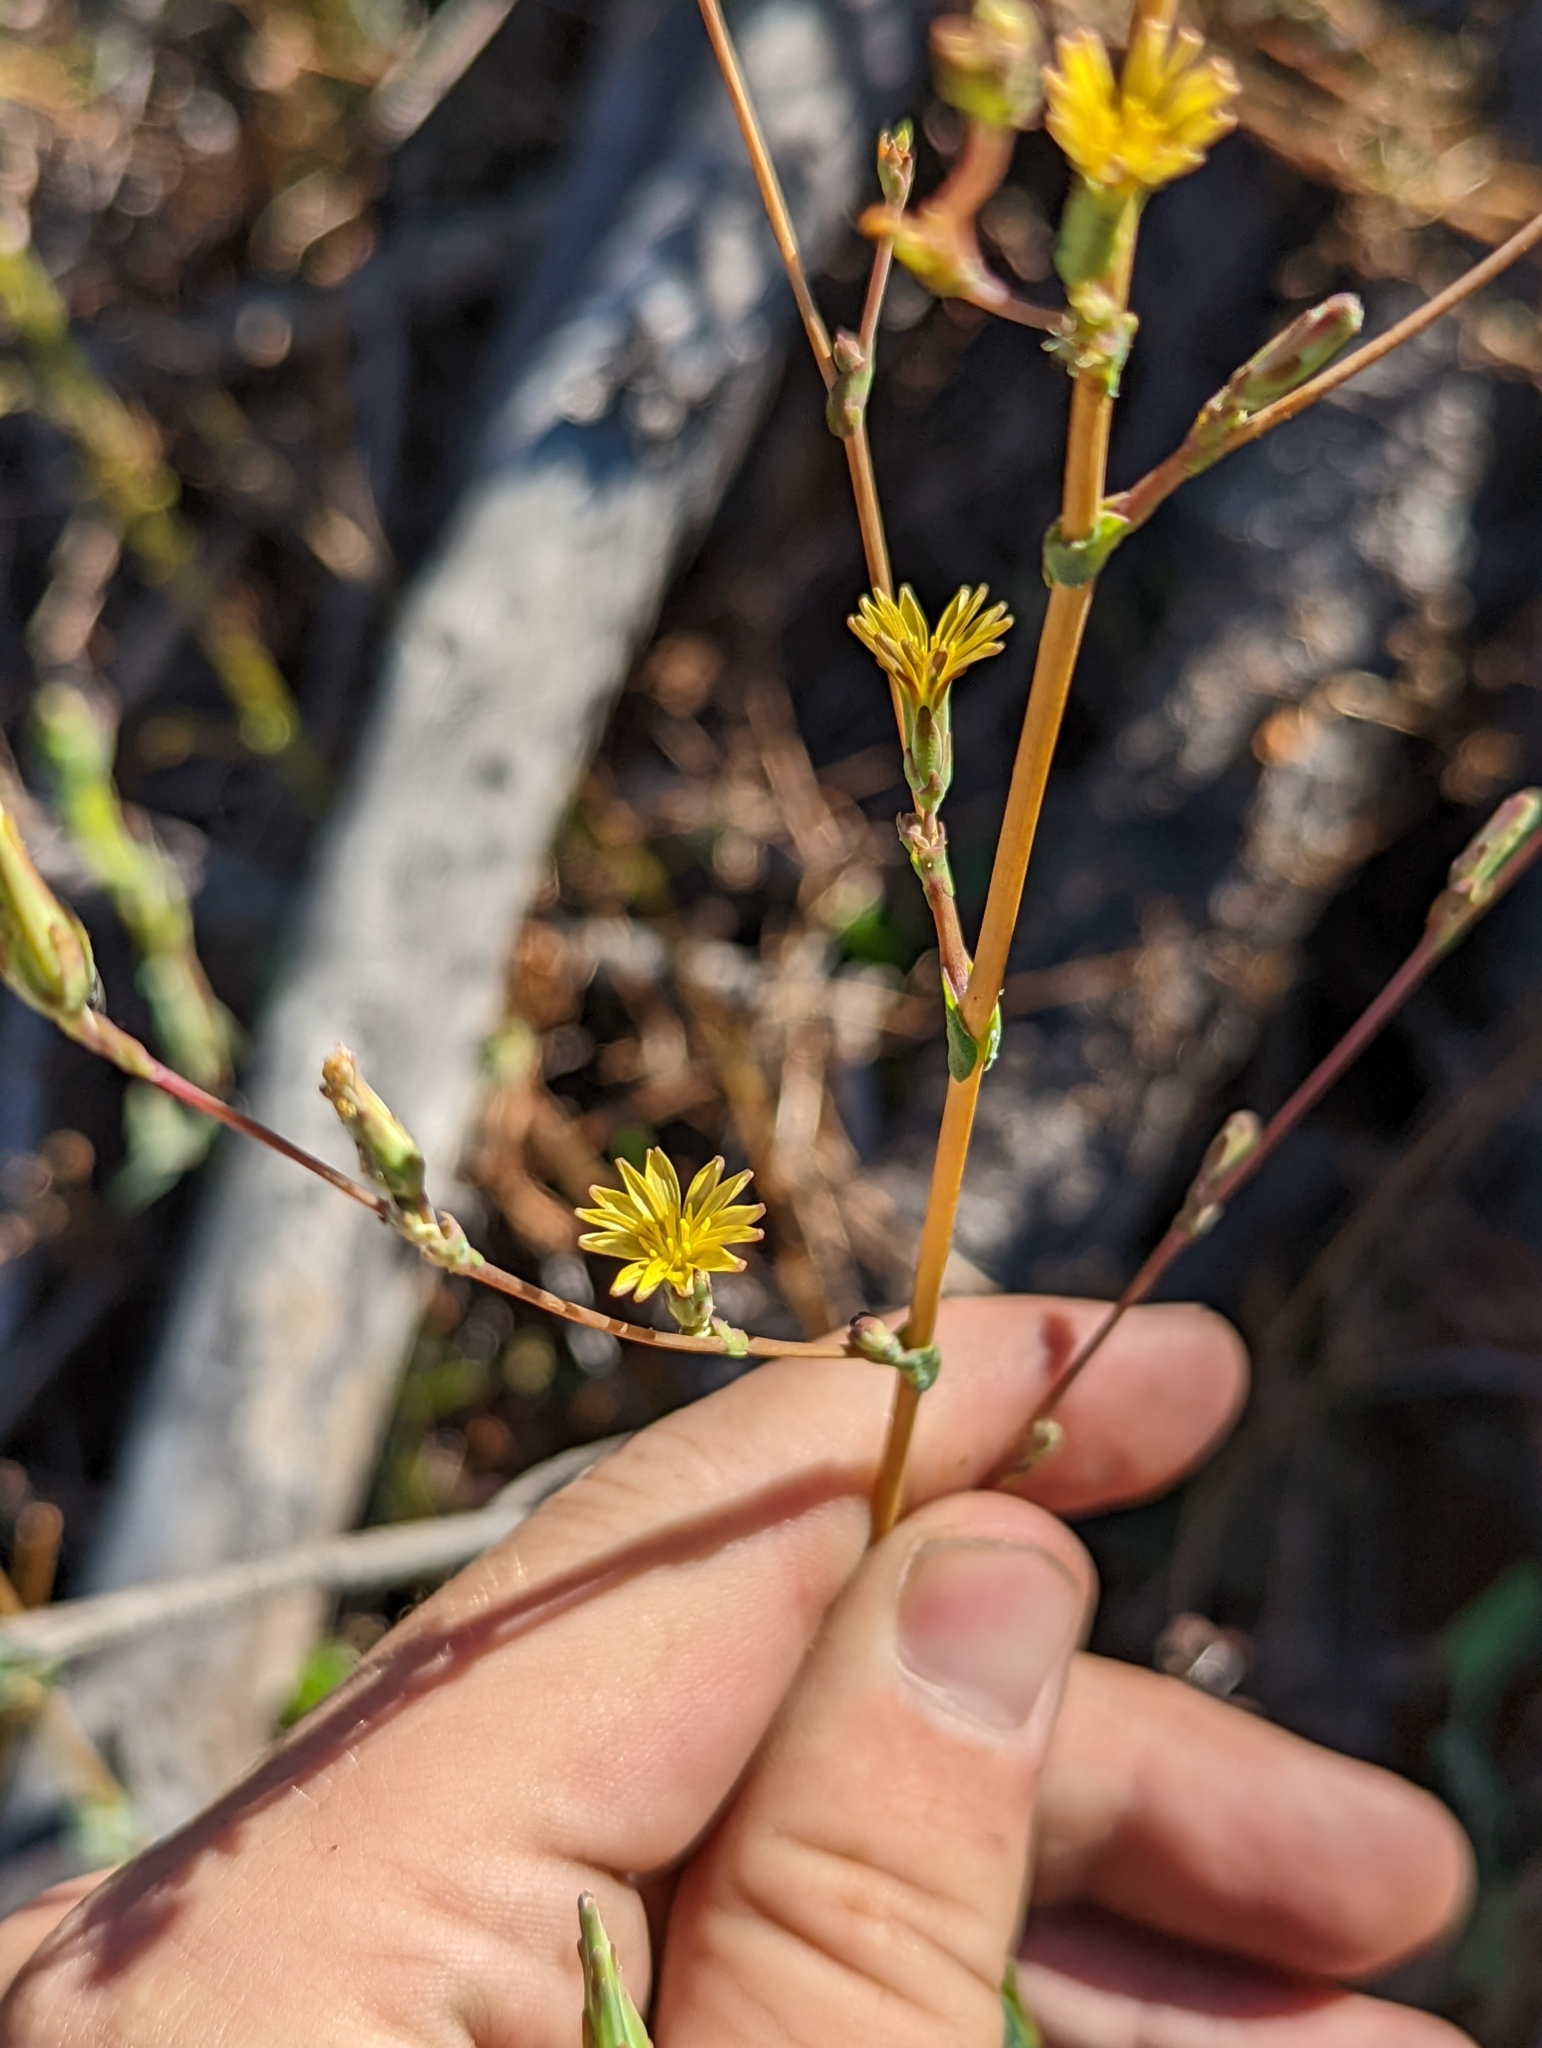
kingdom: Plantae
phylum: Tracheophyta
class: Magnoliopsida
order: Asterales
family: Asteraceae
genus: Lactuca
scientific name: Lactuca serriola
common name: Prickly lettuce
